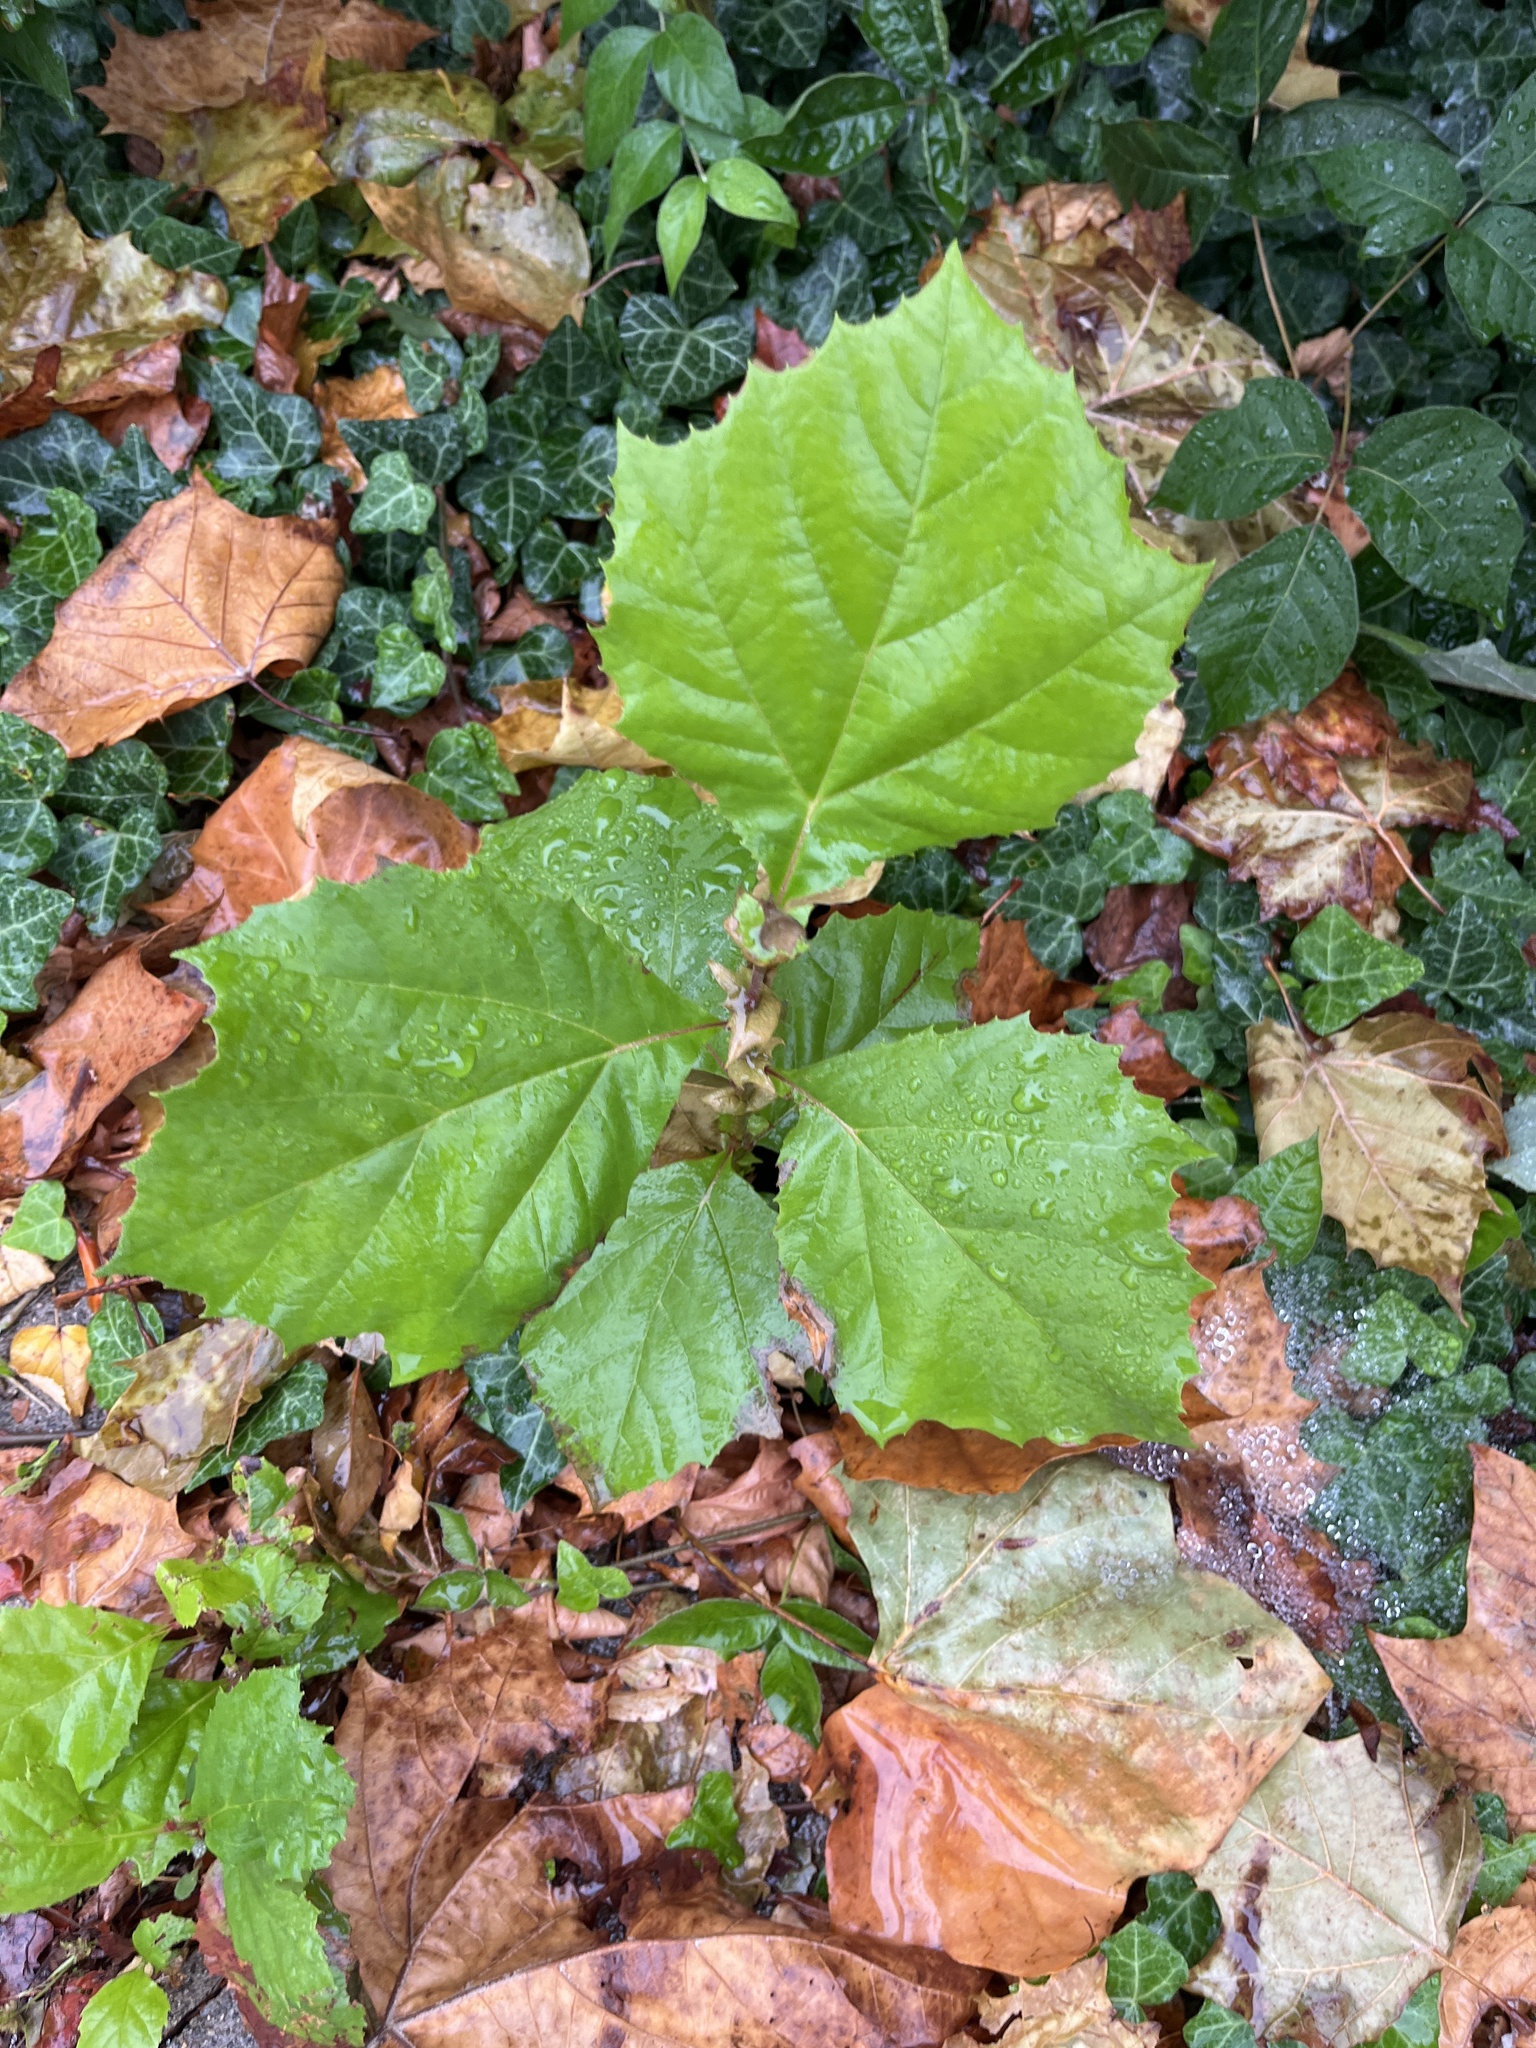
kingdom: Plantae
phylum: Tracheophyta
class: Magnoliopsida
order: Proteales
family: Platanaceae
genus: Platanus
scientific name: Platanus occidentalis
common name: American sycamore
